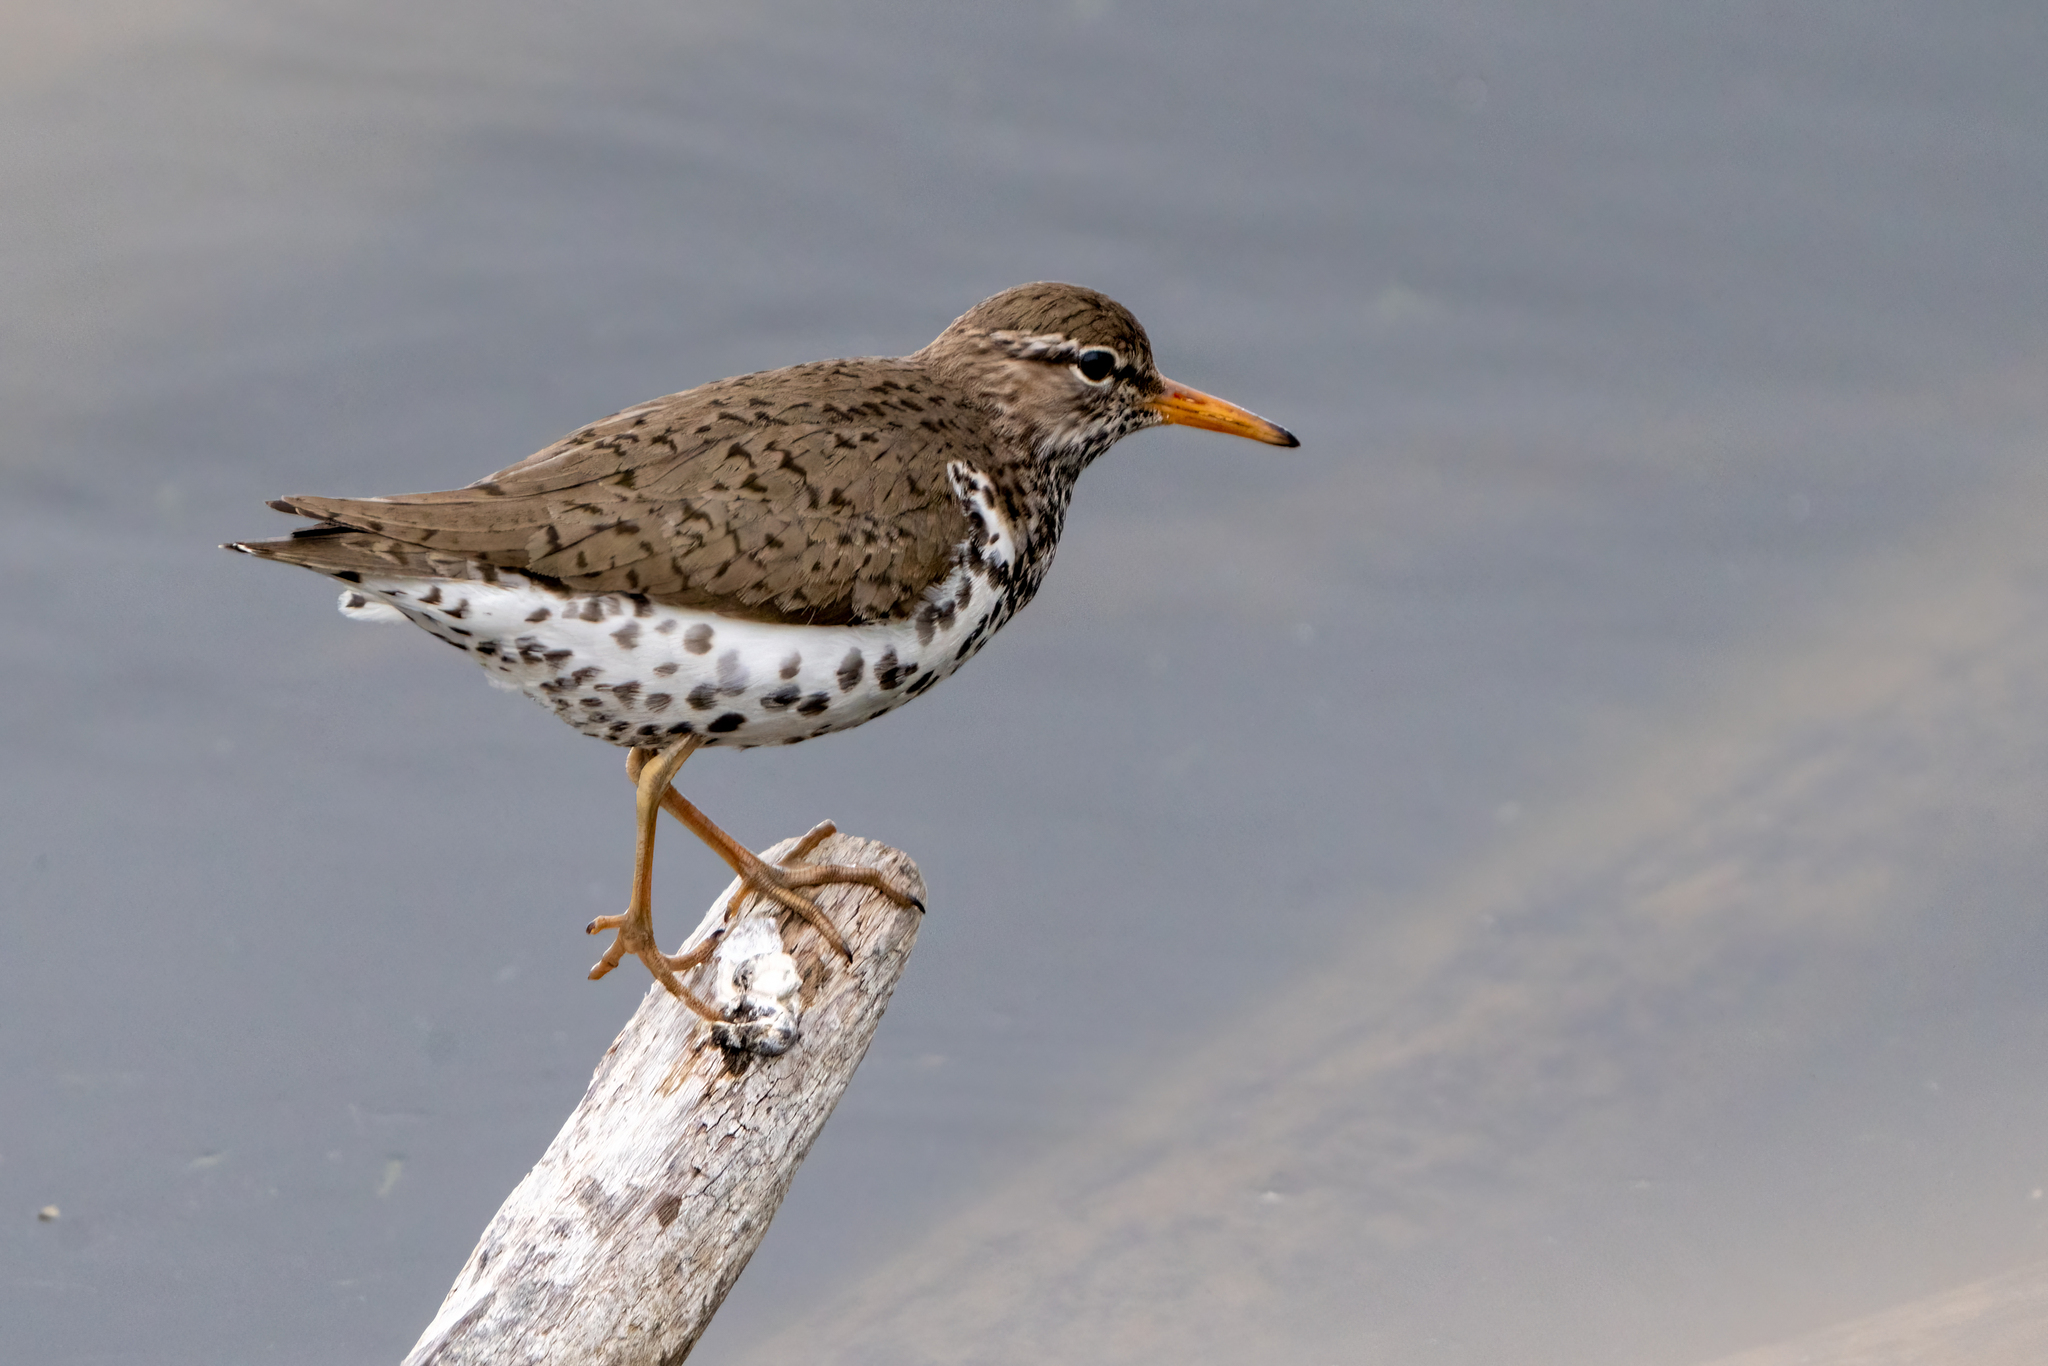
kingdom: Animalia
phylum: Chordata
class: Aves
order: Charadriiformes
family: Scolopacidae
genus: Actitis
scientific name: Actitis macularius
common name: Spotted sandpiper
